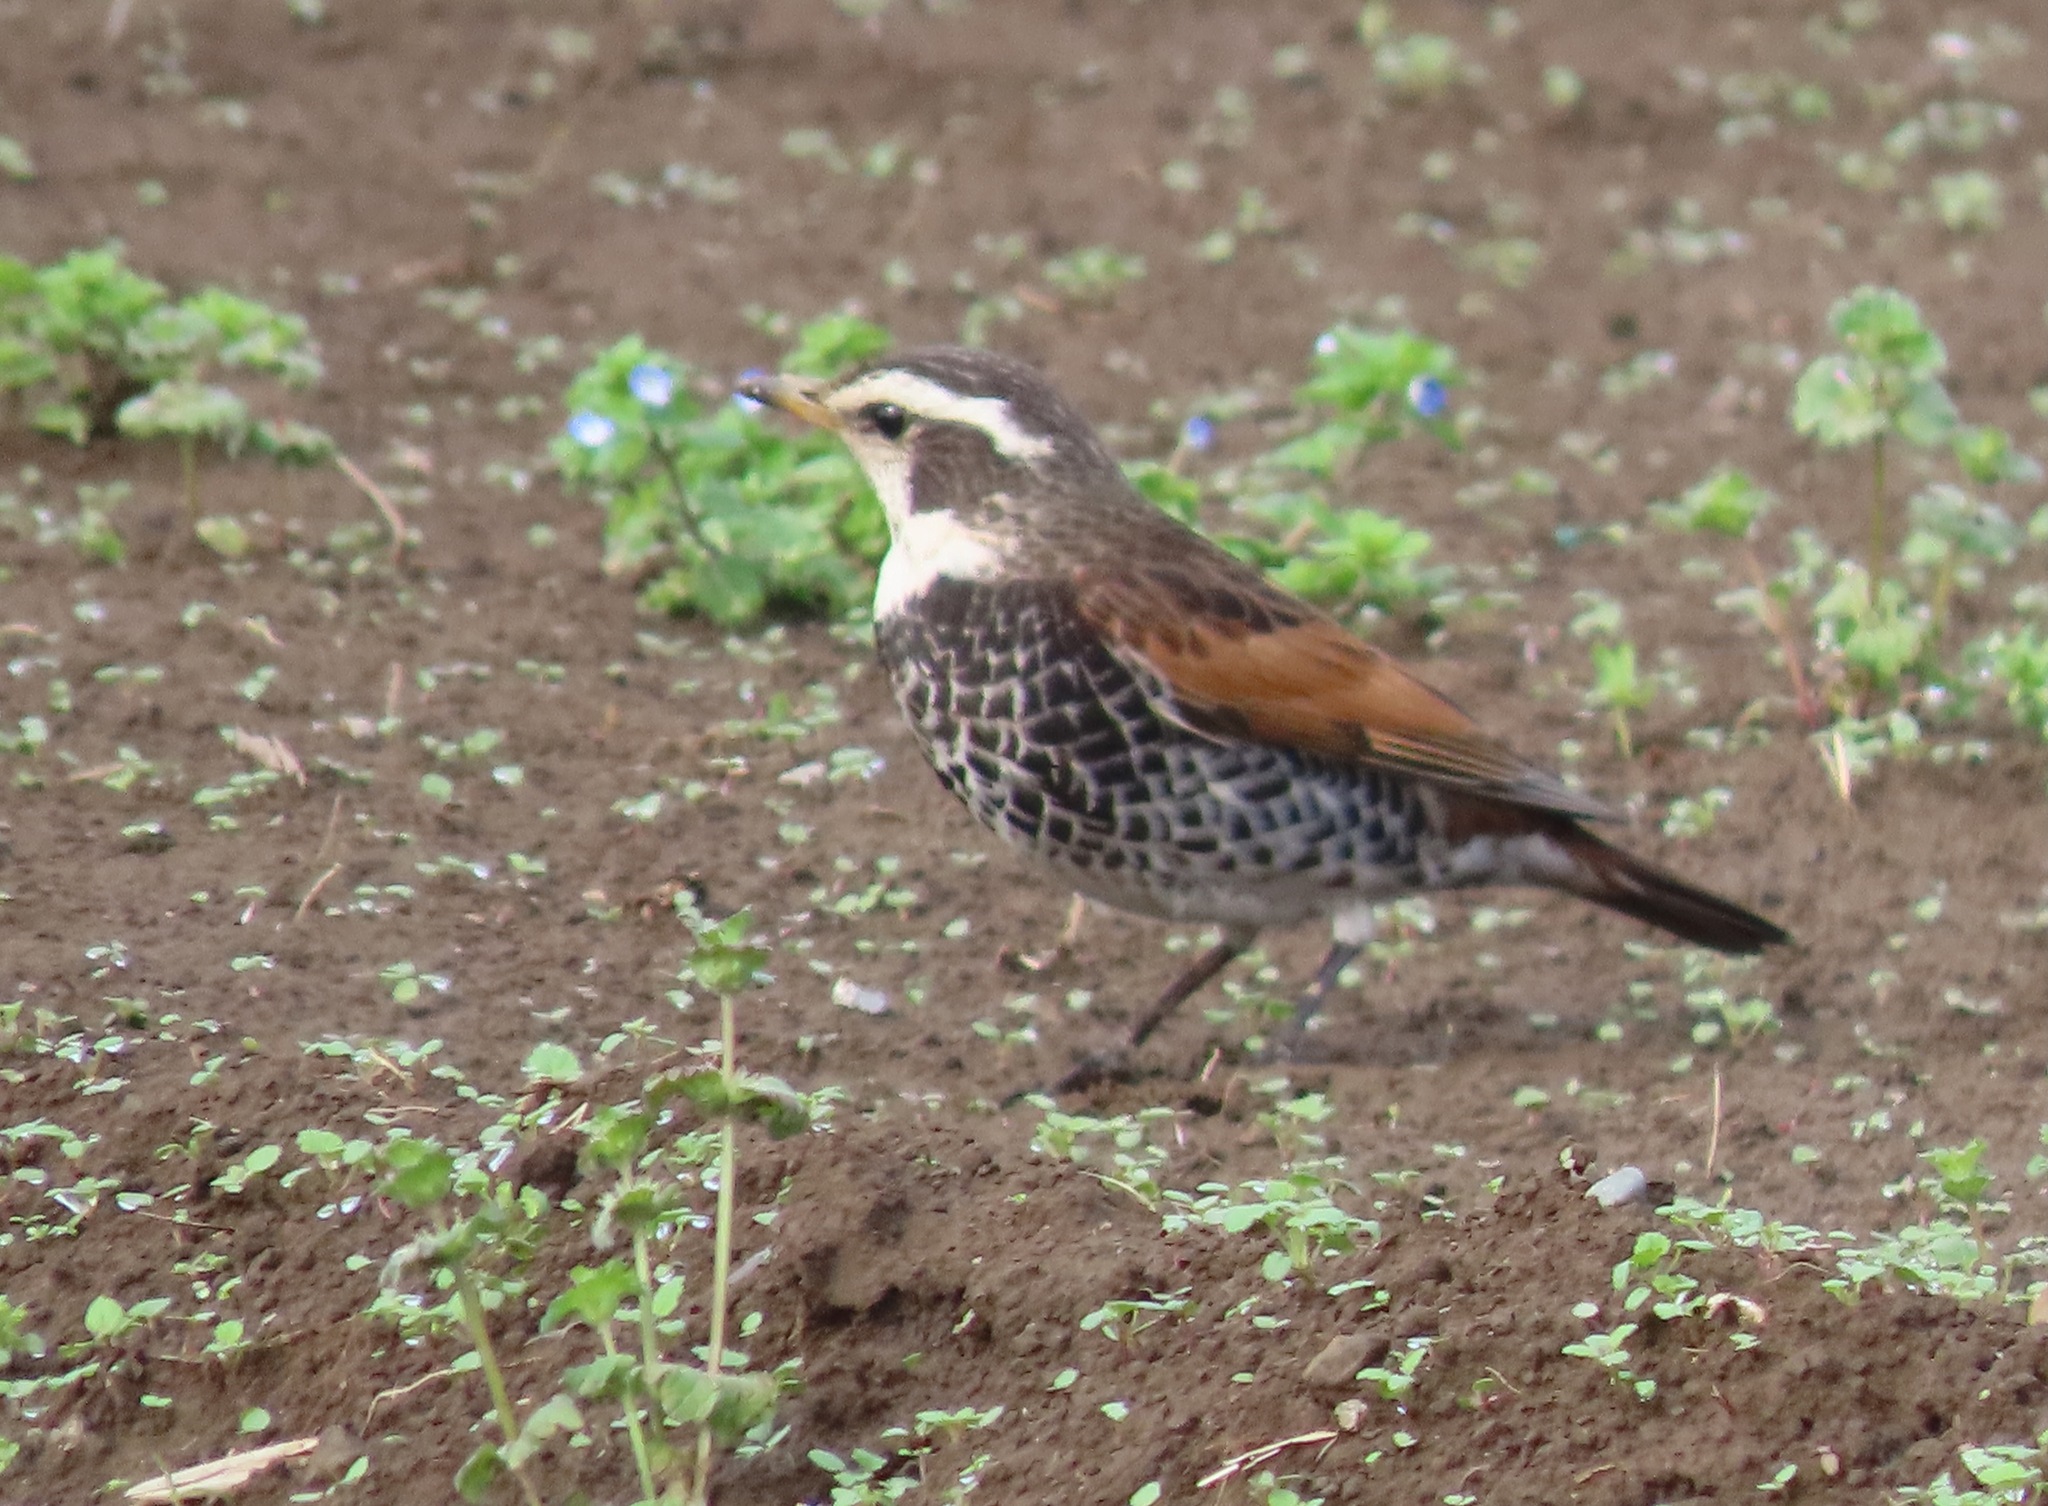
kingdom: Animalia
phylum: Chordata
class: Aves
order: Passeriformes
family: Turdidae
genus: Turdus
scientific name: Turdus eunomus
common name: Dusky thrush
